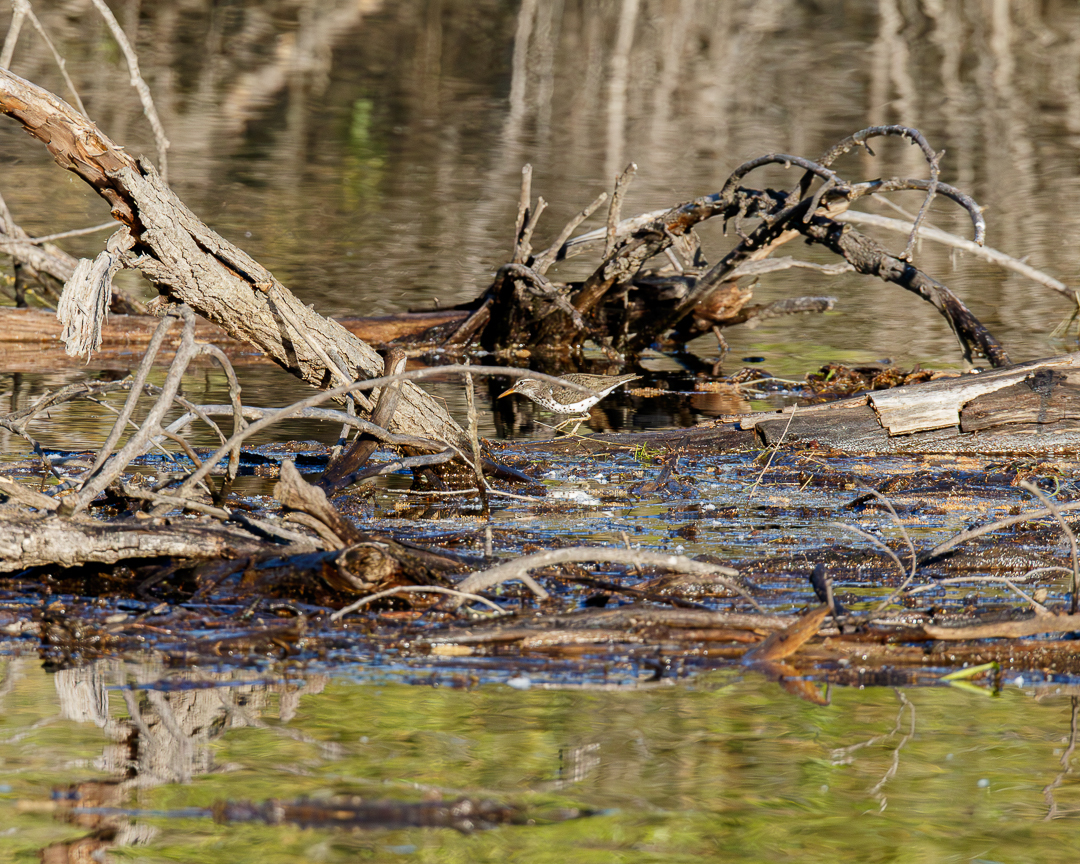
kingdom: Animalia
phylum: Chordata
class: Aves
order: Charadriiformes
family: Scolopacidae
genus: Actitis
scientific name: Actitis macularius
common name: Spotted sandpiper
